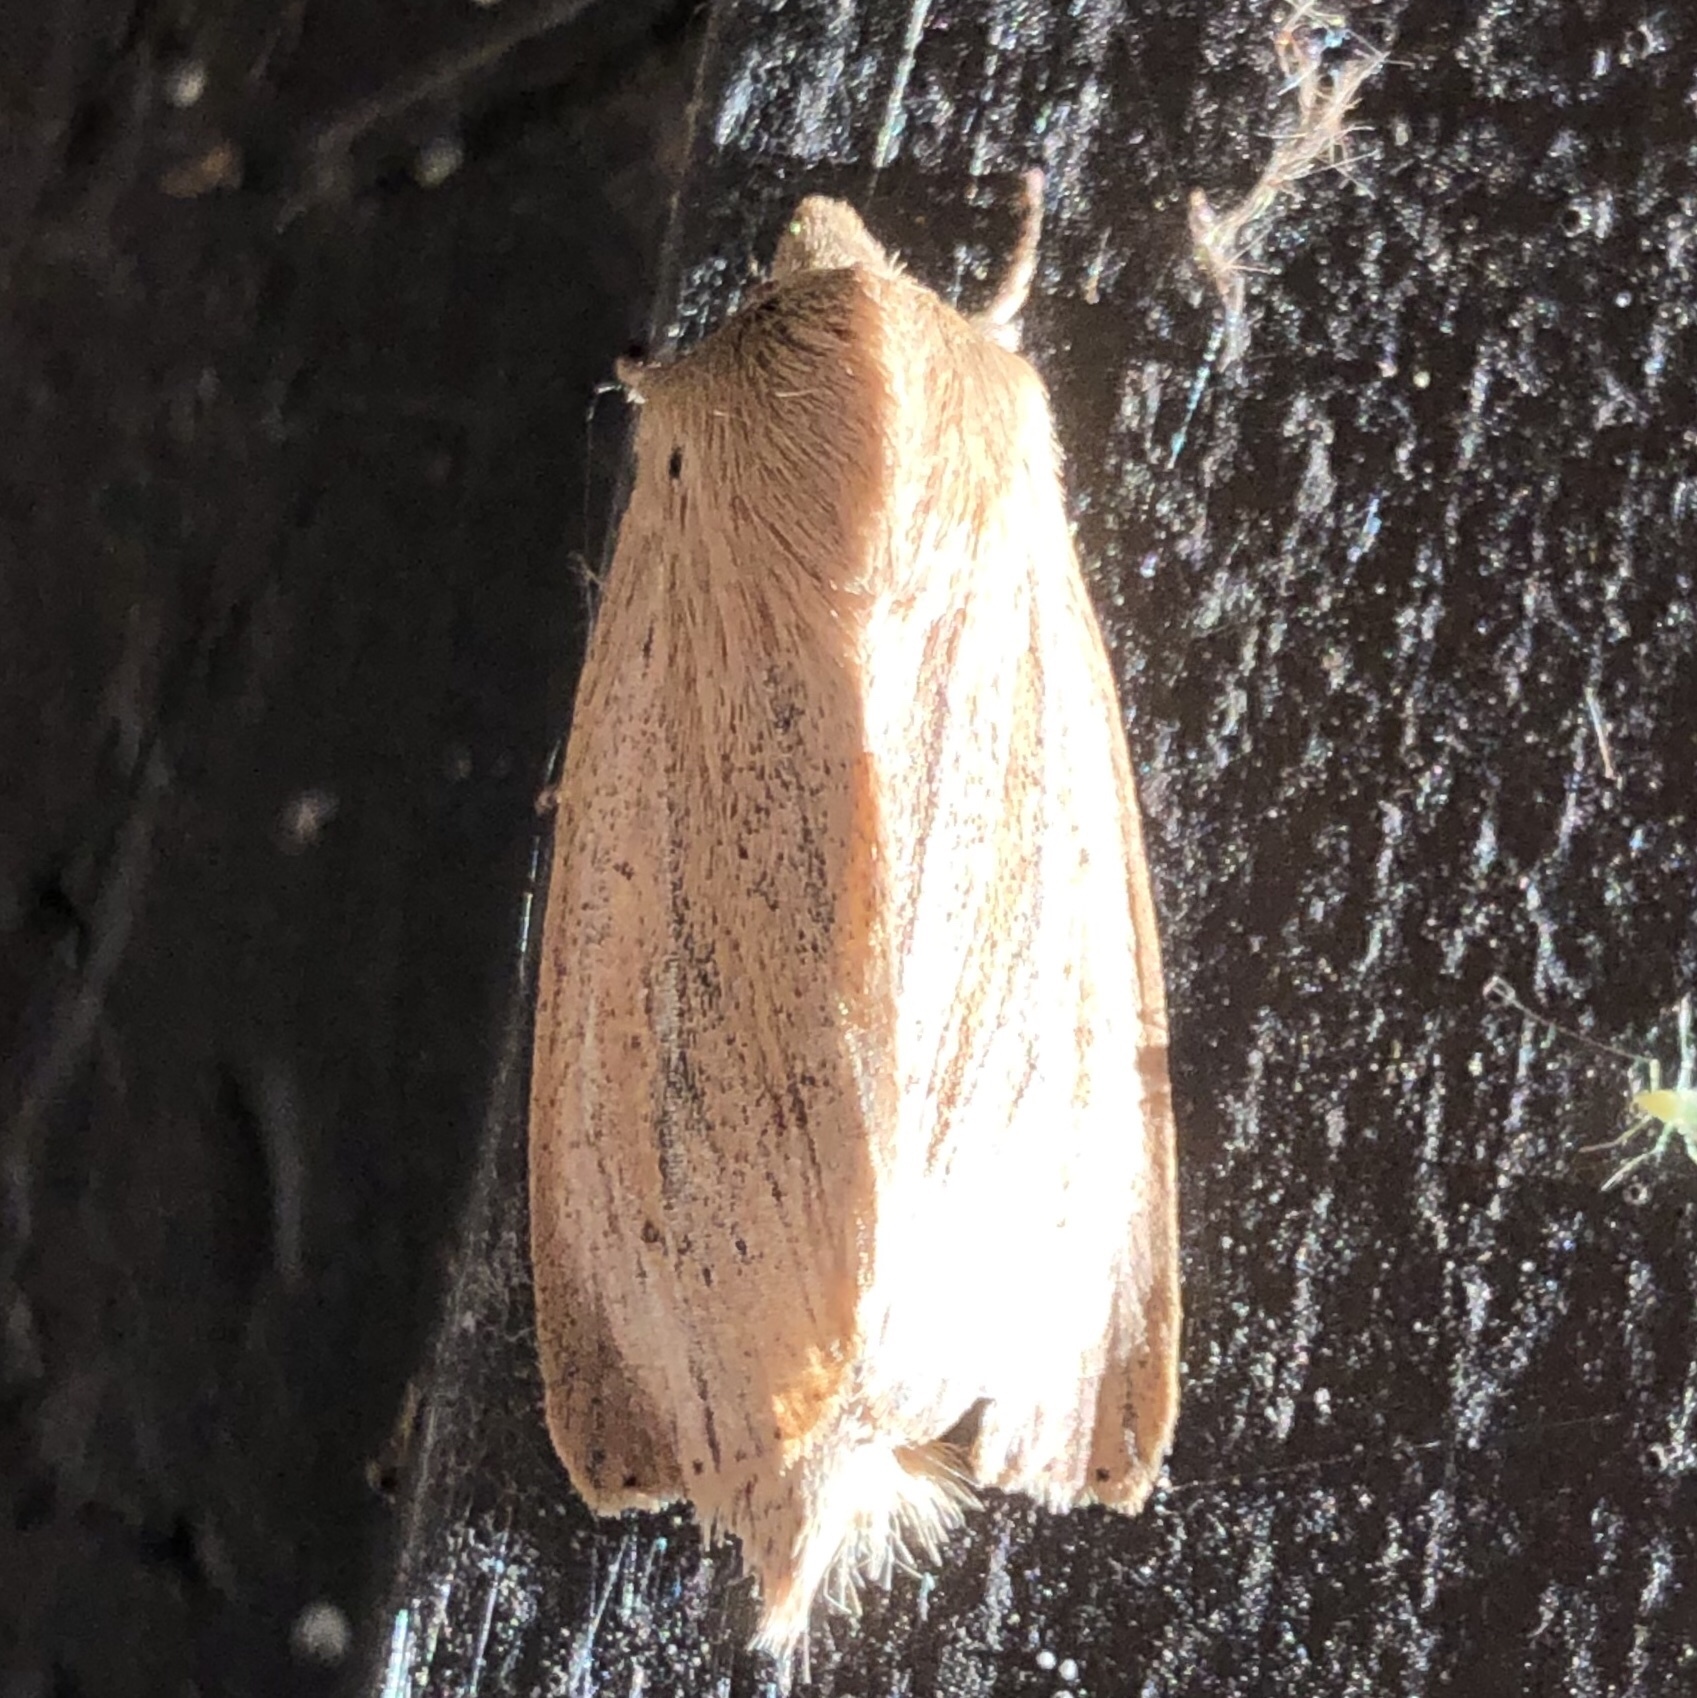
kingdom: Animalia
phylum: Arthropoda
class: Insecta
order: Lepidoptera
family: Noctuidae
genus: Rhizedra
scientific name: Rhizedra lutosa
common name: Large wainscot
